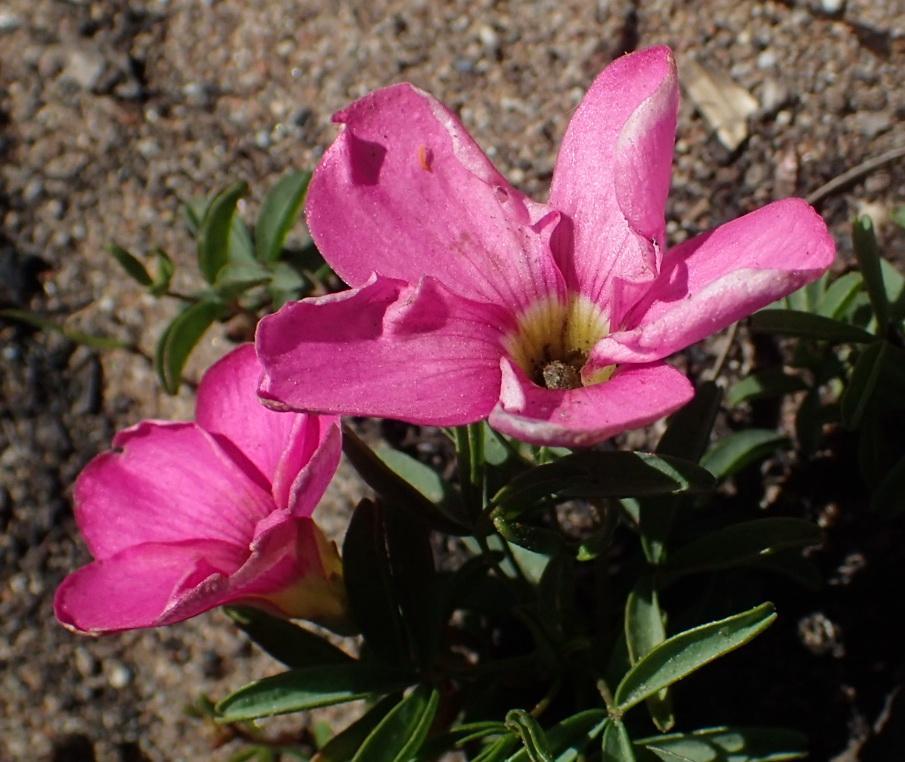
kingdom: Plantae
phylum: Tracheophyta
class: Magnoliopsida
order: Oxalidales
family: Oxalidaceae
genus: Oxalis
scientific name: Oxalis ciliaris
